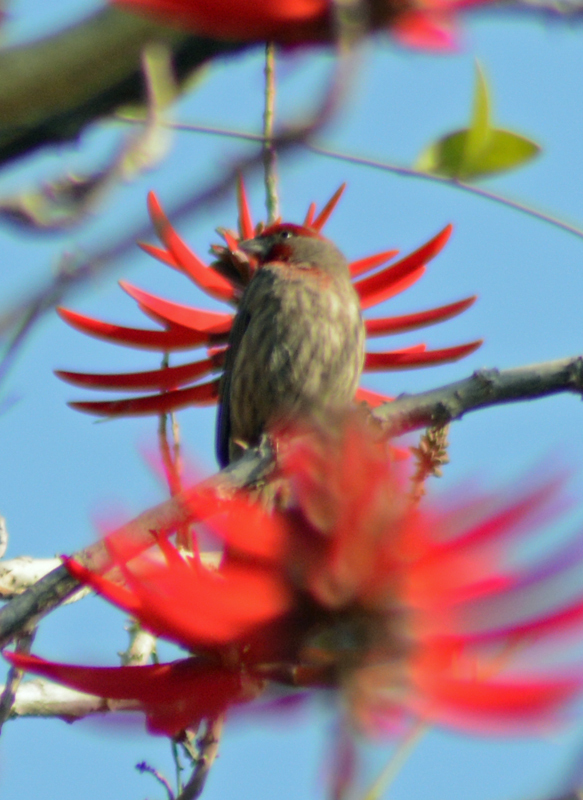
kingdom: Animalia
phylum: Chordata
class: Aves
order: Passeriformes
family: Fringillidae
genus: Haemorhous
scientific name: Haemorhous mexicanus
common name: House finch
